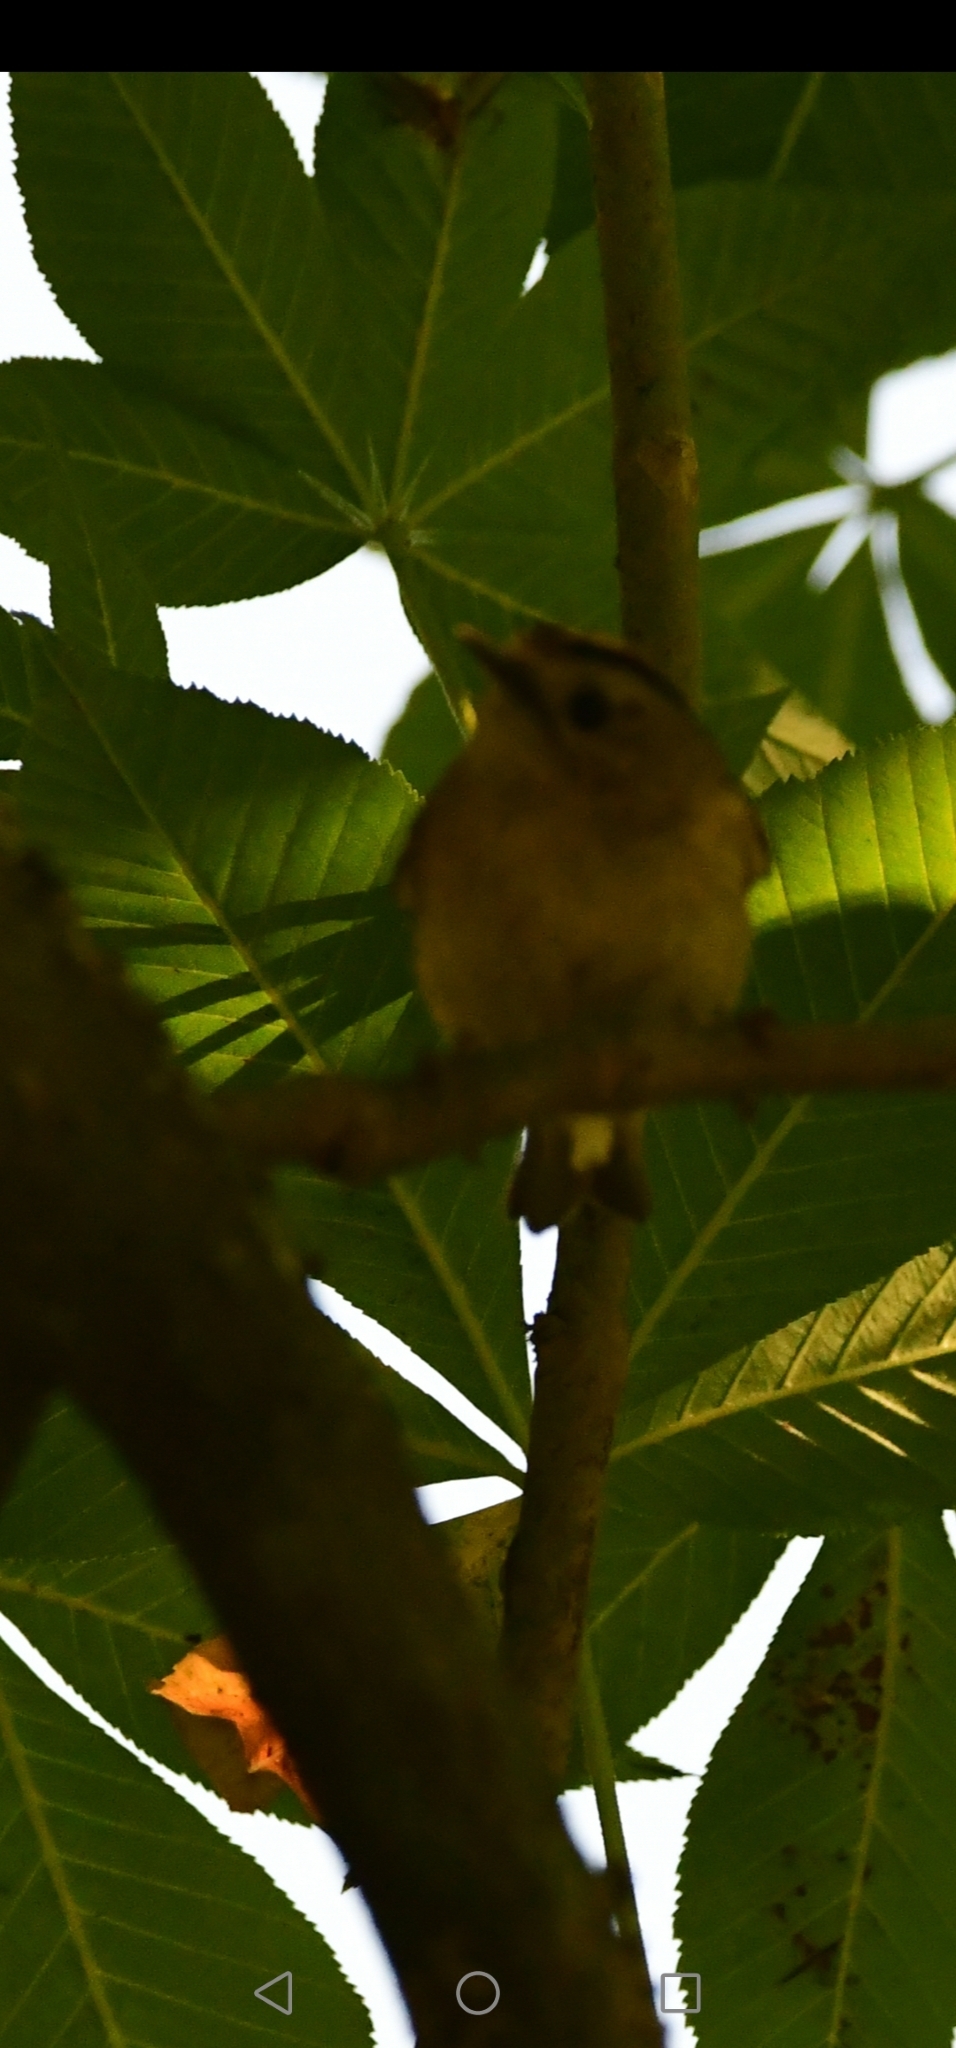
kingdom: Animalia
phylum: Chordata
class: Aves
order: Passeriformes
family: Regulidae
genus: Regulus
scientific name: Regulus regulus
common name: Goldcrest
